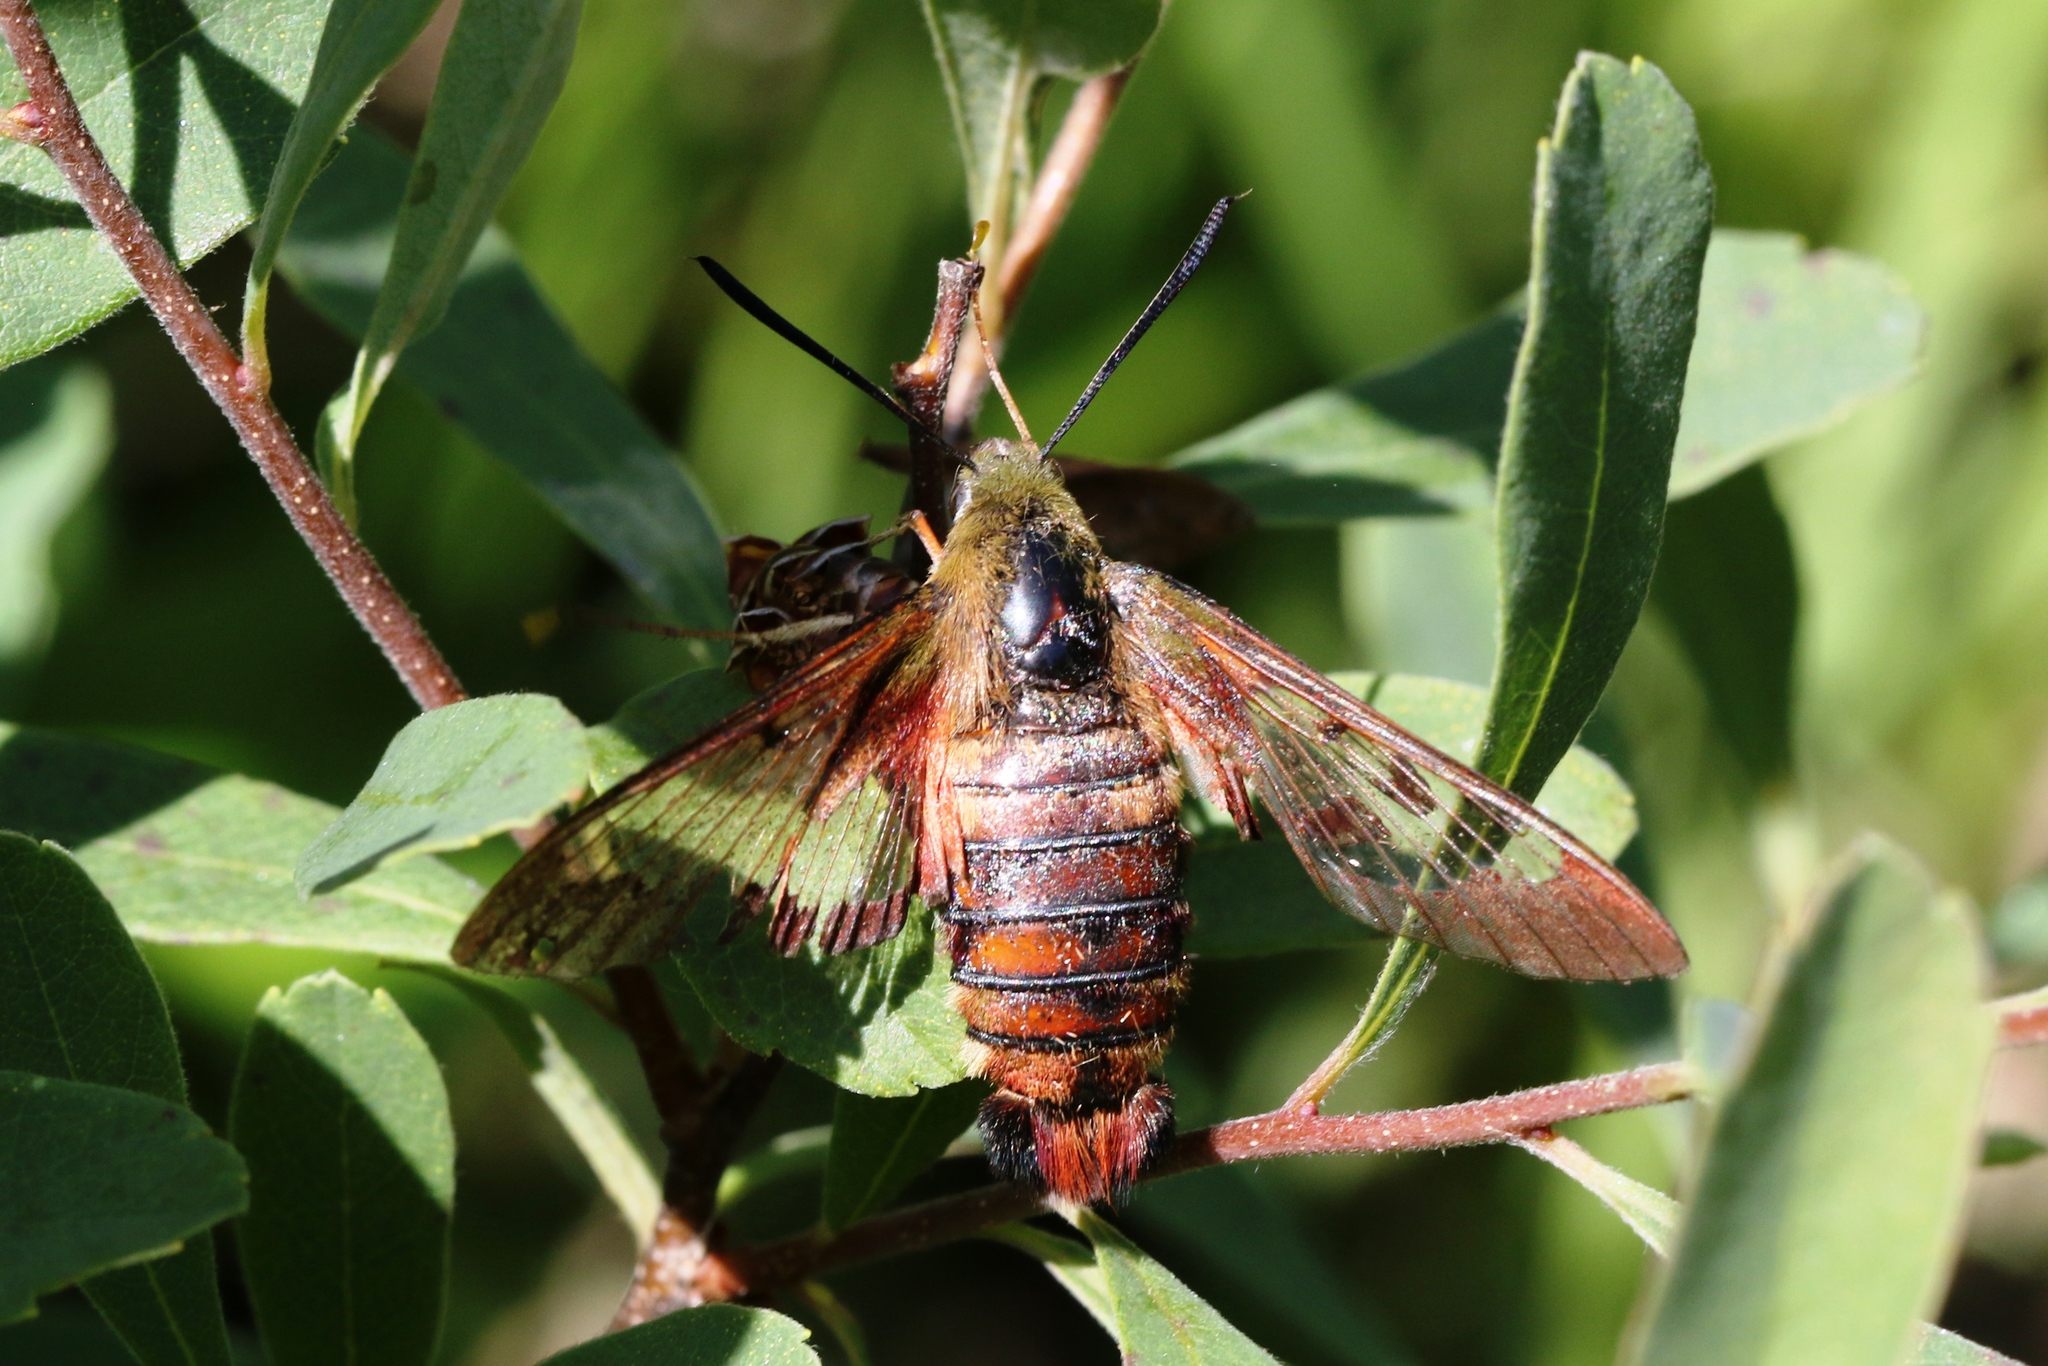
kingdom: Animalia
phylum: Arthropoda
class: Insecta
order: Lepidoptera
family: Sphingidae
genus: Hemaris
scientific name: Hemaris thysbe
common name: Common clear-wing
